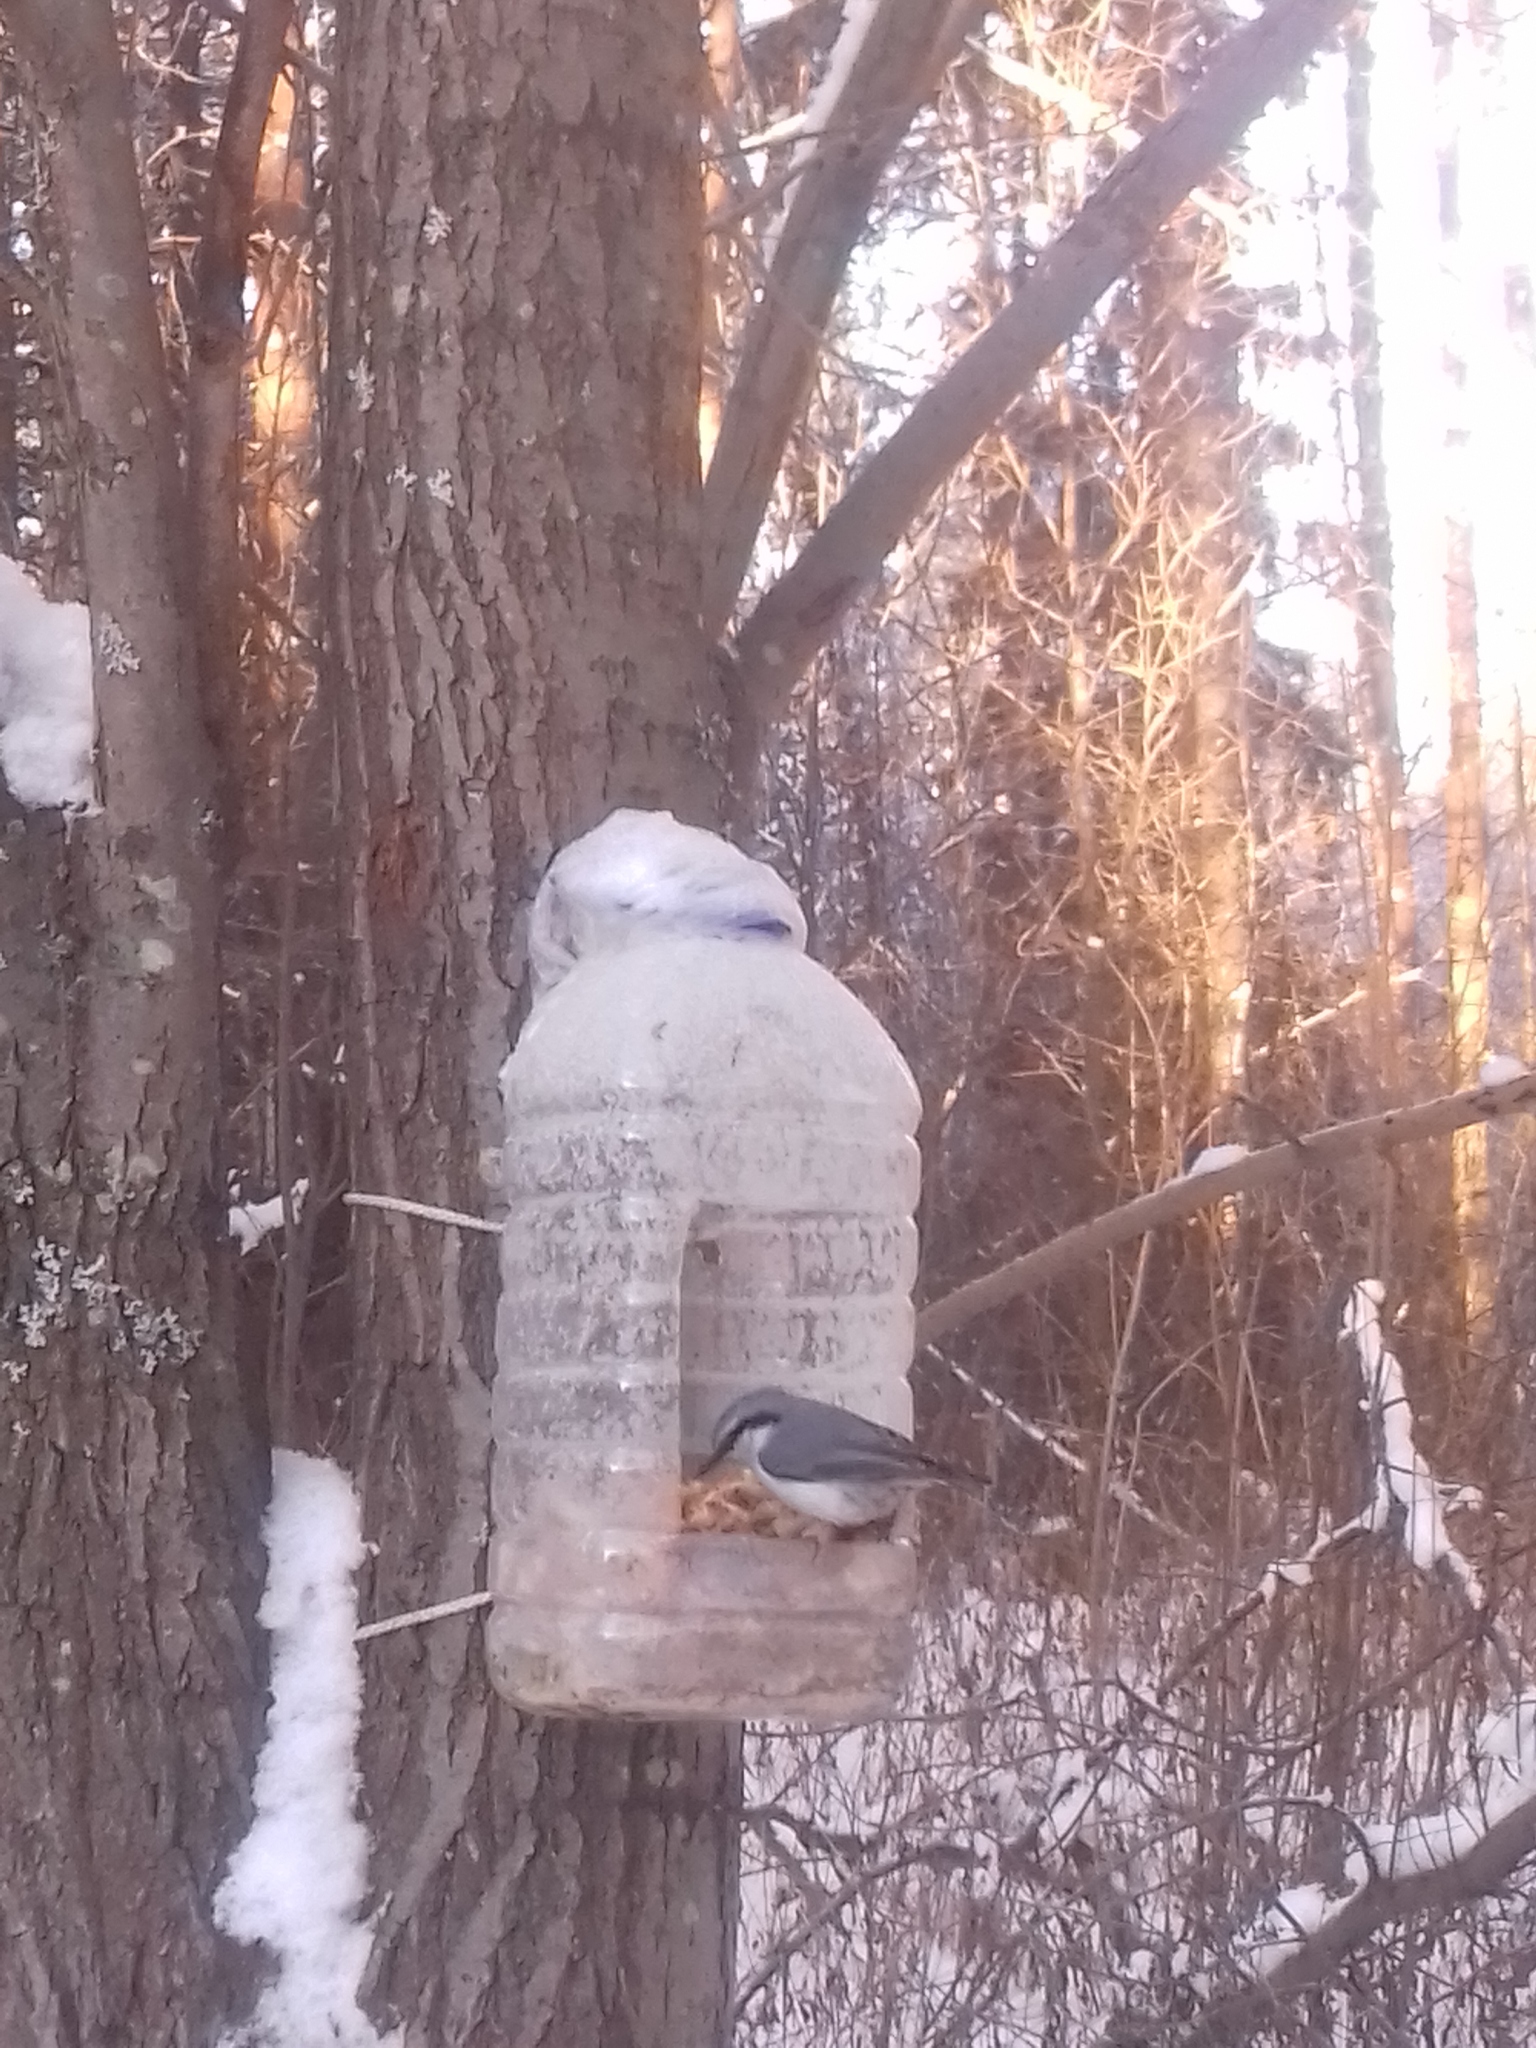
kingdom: Animalia
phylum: Chordata
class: Aves
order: Passeriformes
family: Sittidae
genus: Sitta
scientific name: Sitta europaea
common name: Eurasian nuthatch
